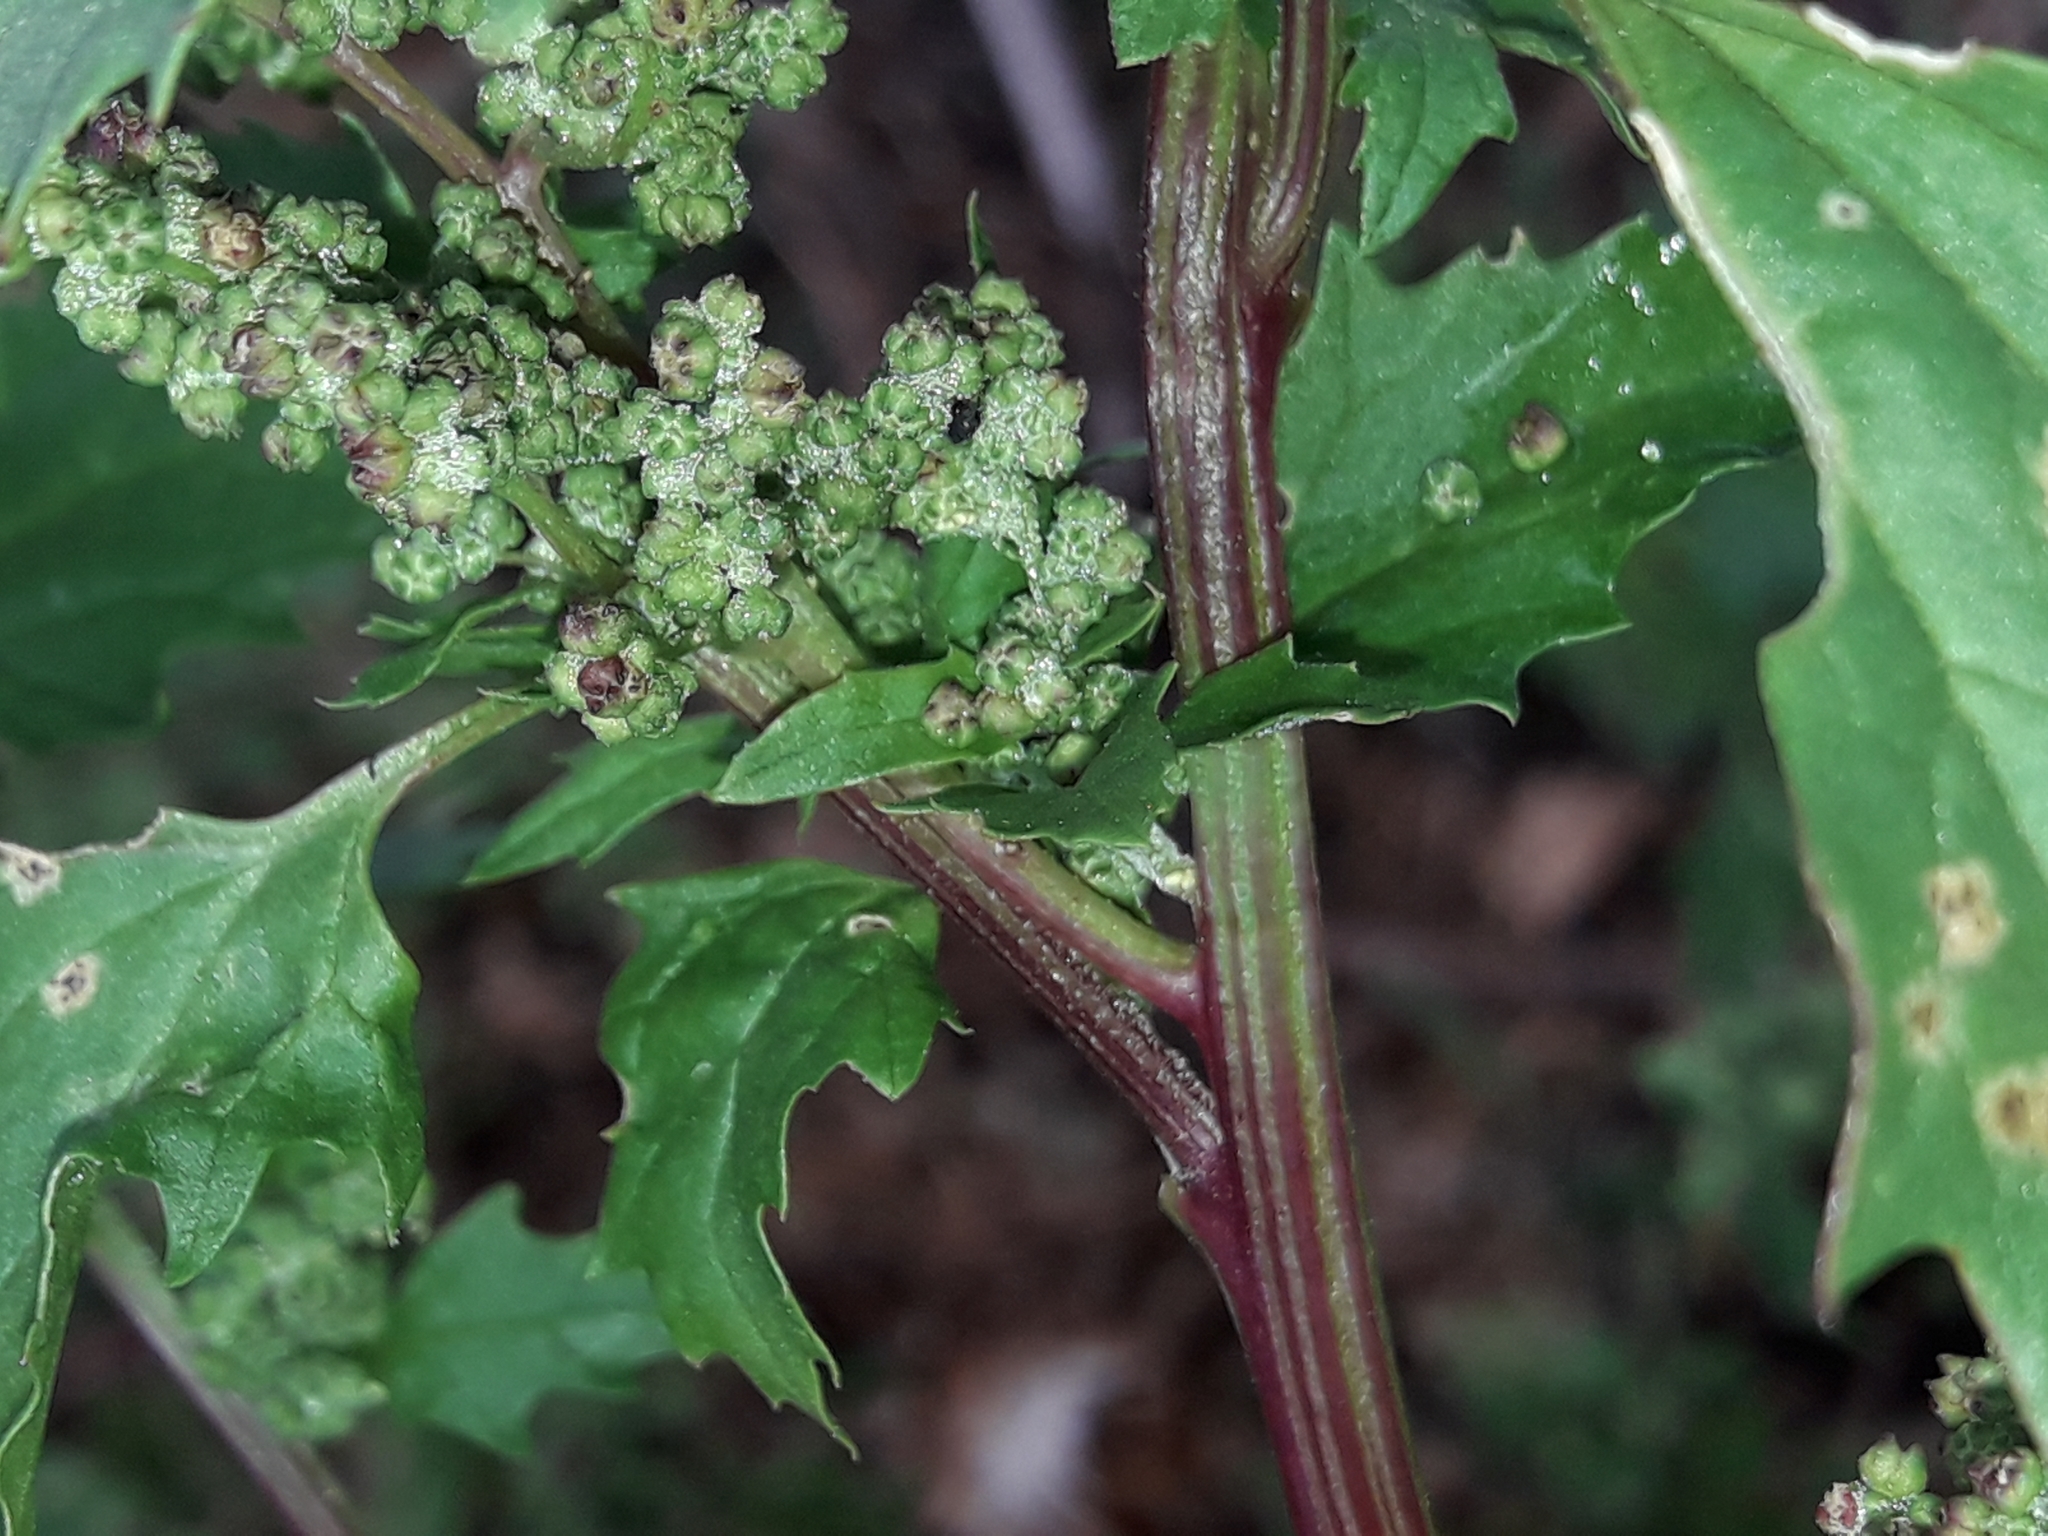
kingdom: Plantae
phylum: Tracheophyta
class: Magnoliopsida
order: Caryophyllales
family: Amaranthaceae
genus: Chenopodiastrum
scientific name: Chenopodiastrum murale
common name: Sowbane
